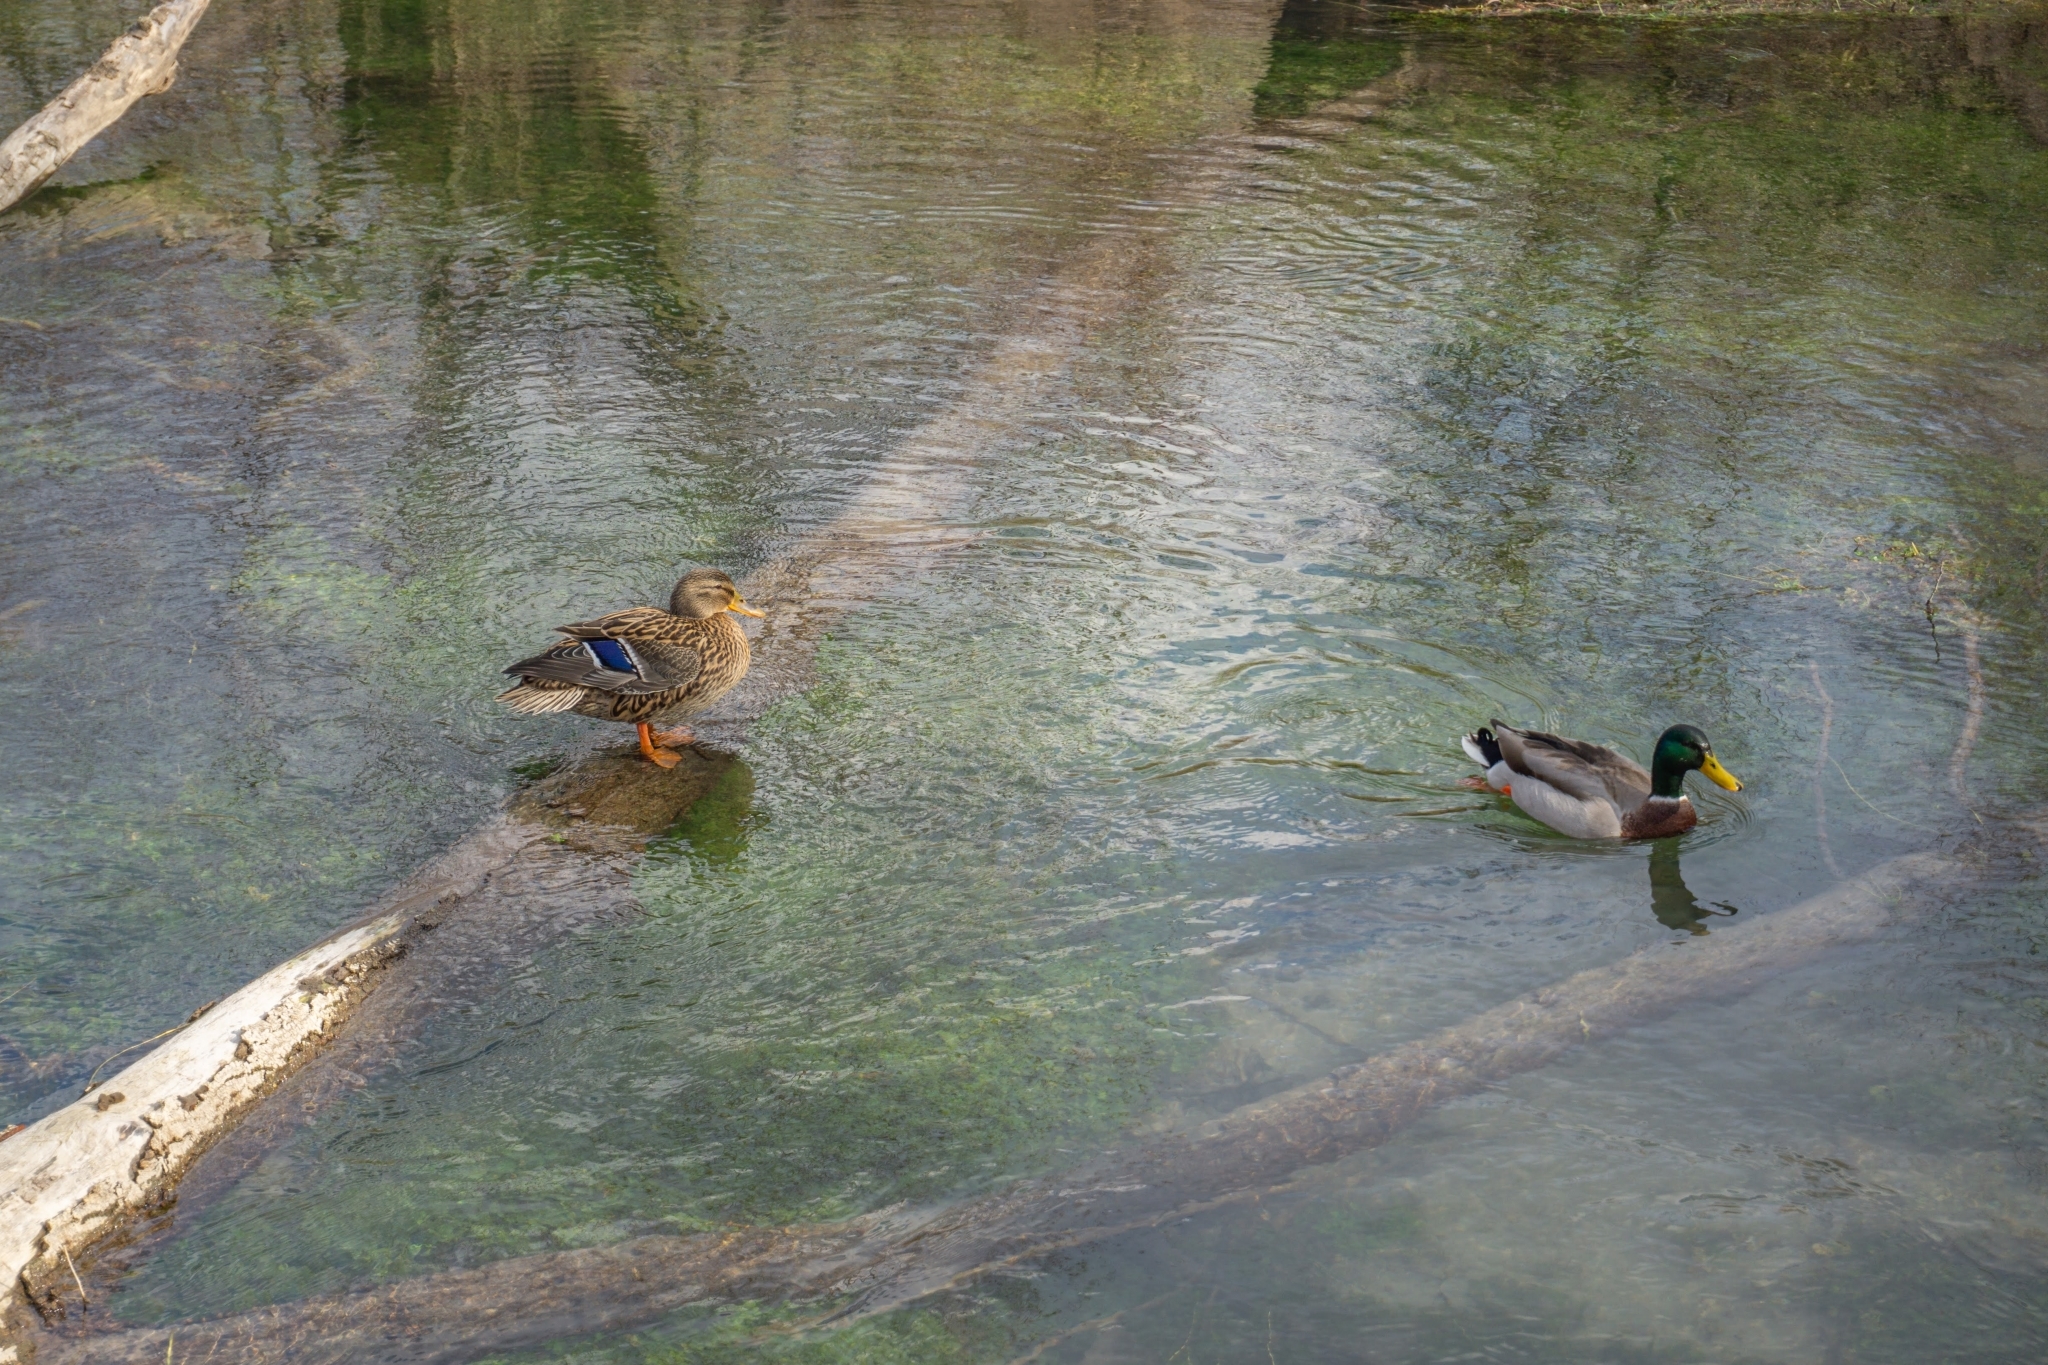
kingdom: Animalia
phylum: Chordata
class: Aves
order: Anseriformes
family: Anatidae
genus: Anas
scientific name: Anas platyrhynchos
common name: Mallard
